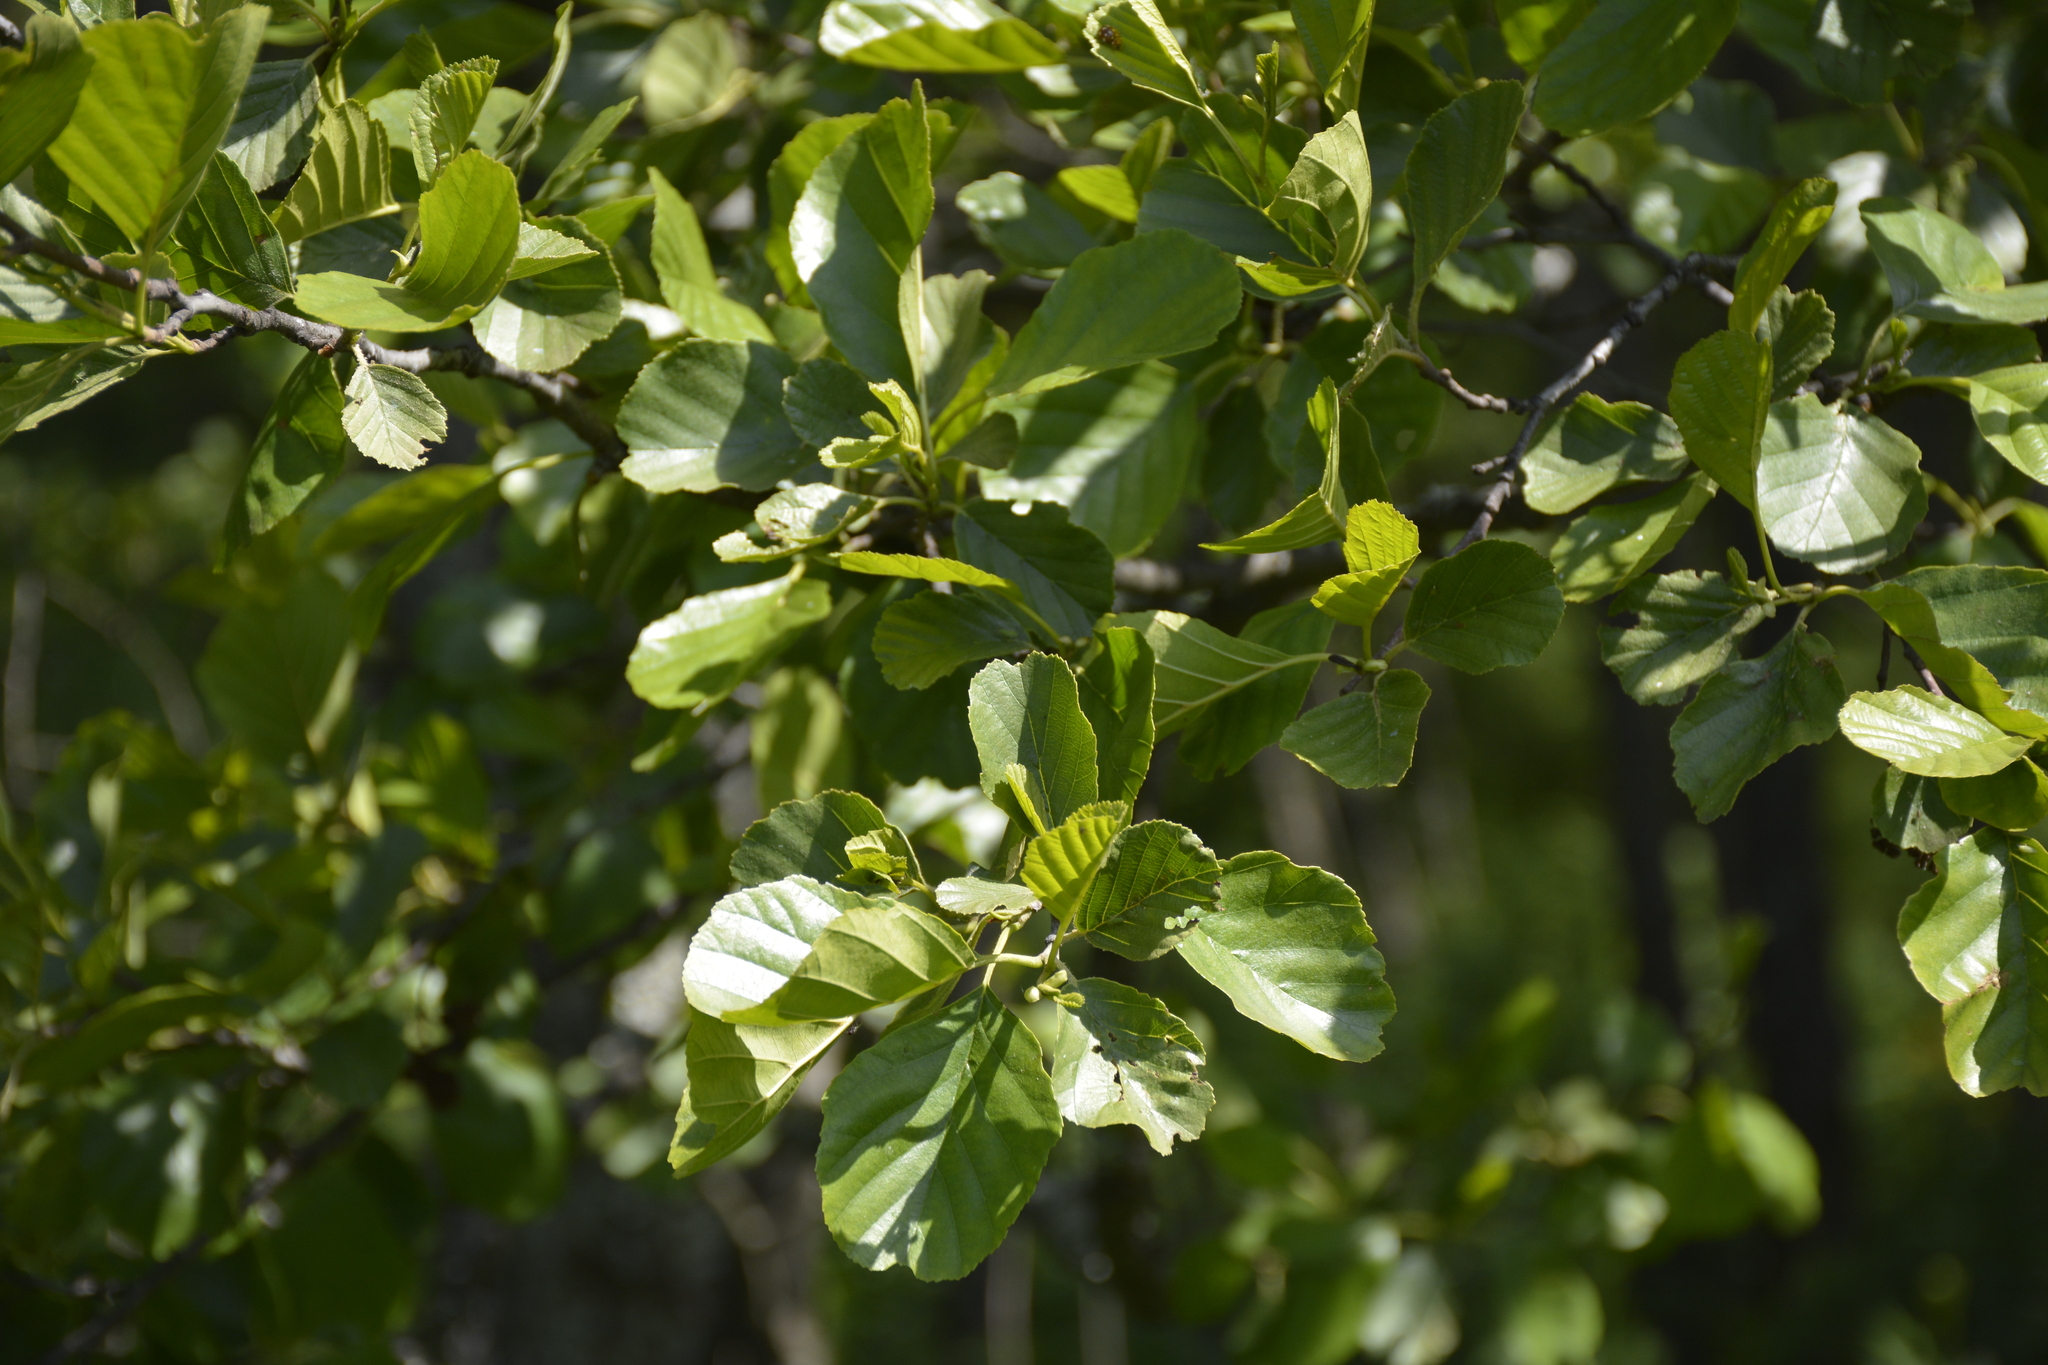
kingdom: Plantae
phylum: Tracheophyta
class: Magnoliopsida
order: Fagales
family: Betulaceae
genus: Alnus
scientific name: Alnus glutinosa
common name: Black alder
